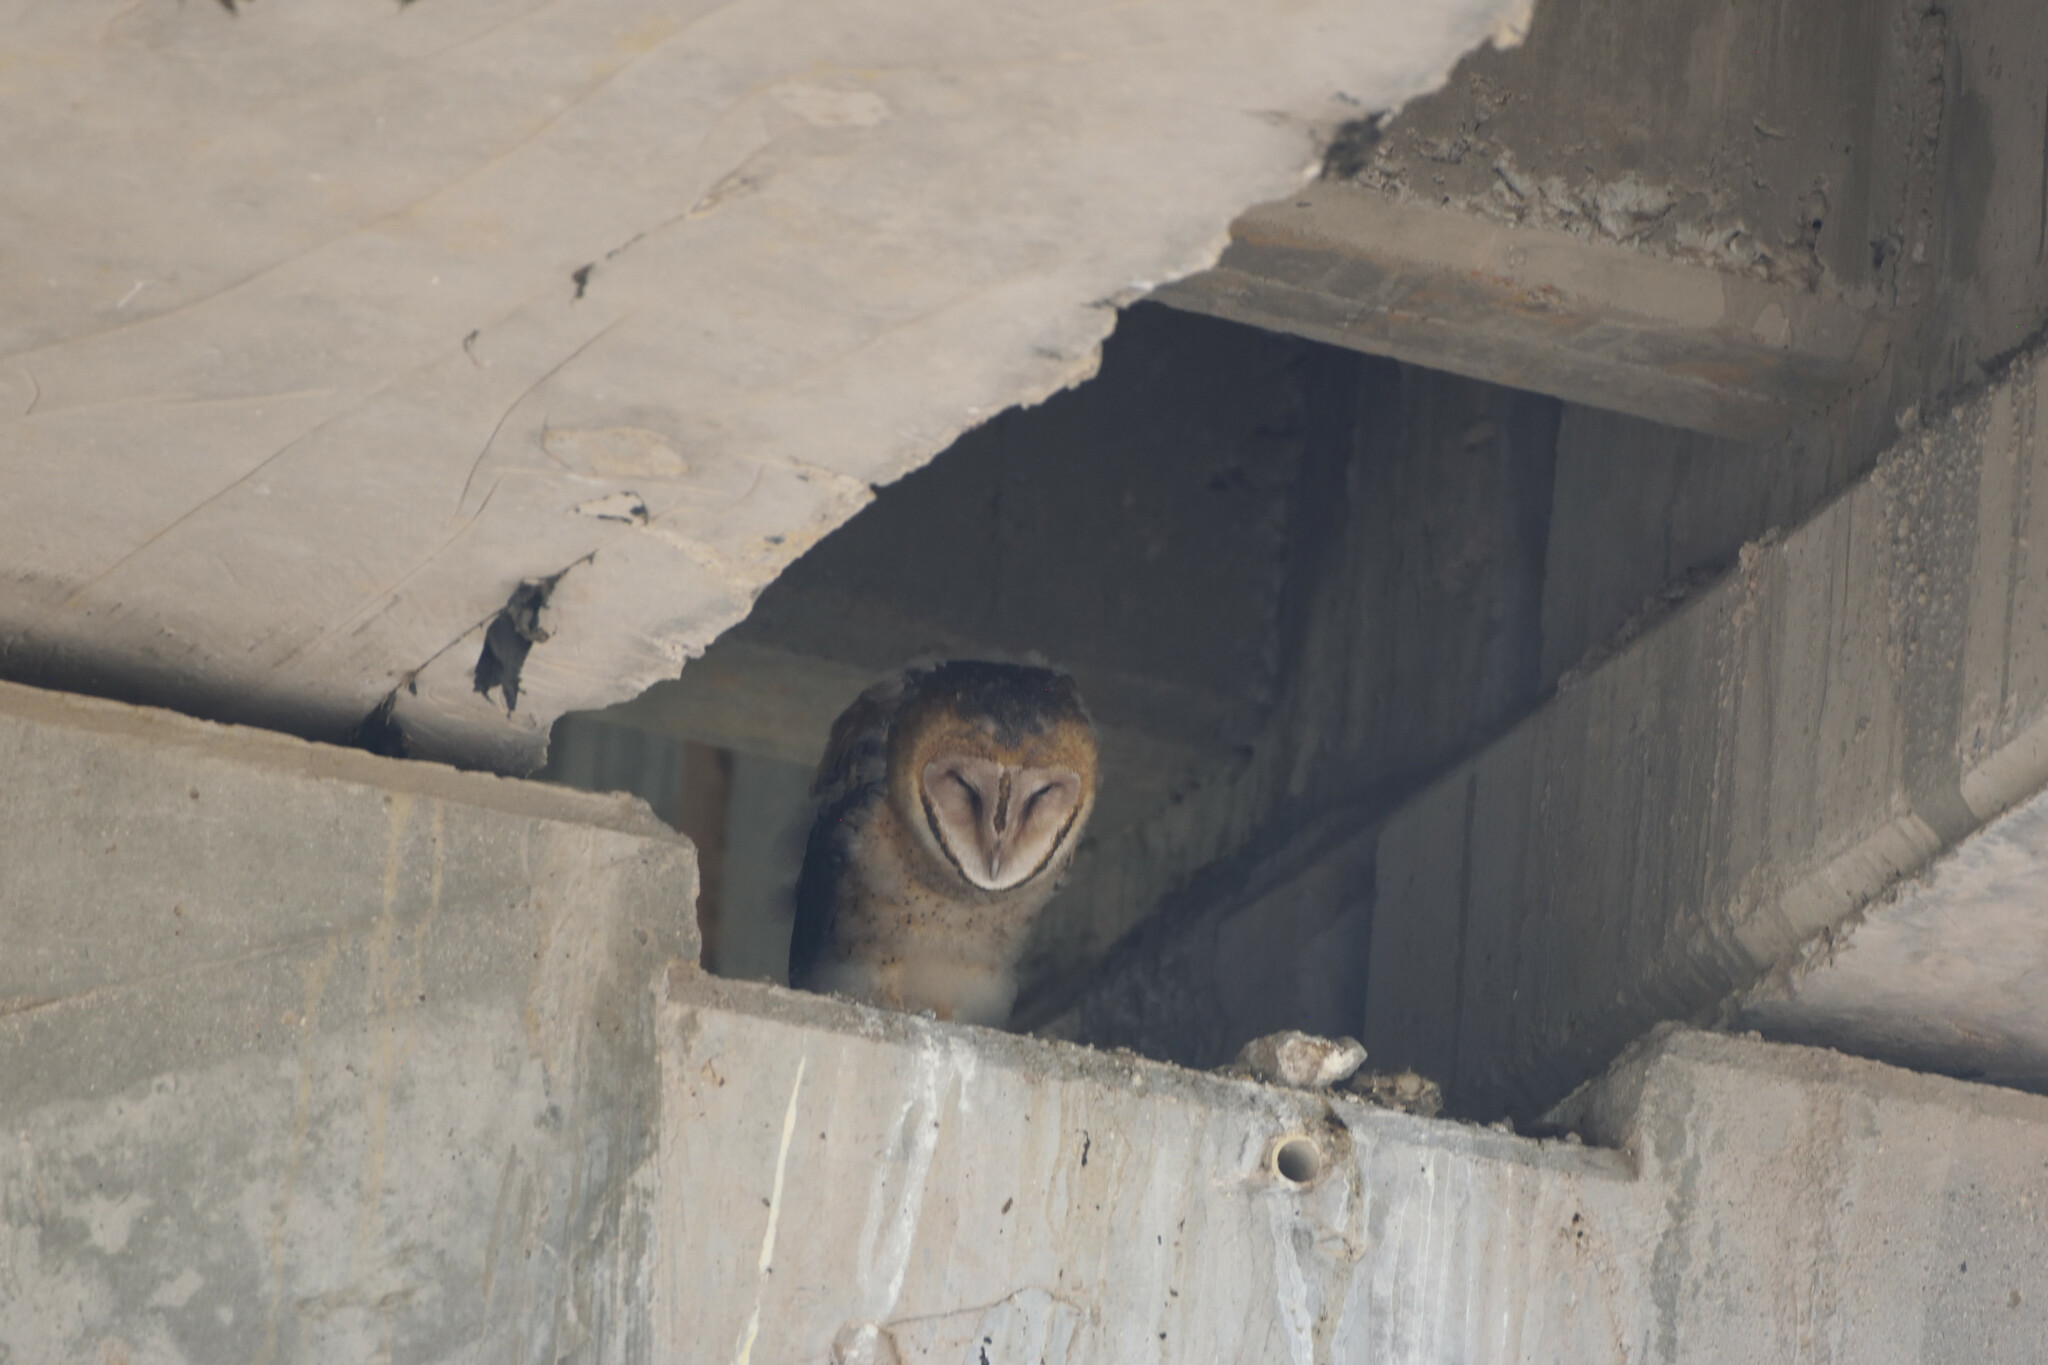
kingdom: Animalia
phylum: Chordata
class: Aves
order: Strigiformes
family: Tytonidae
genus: Tyto
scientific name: Tyto alba
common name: Barn owl
